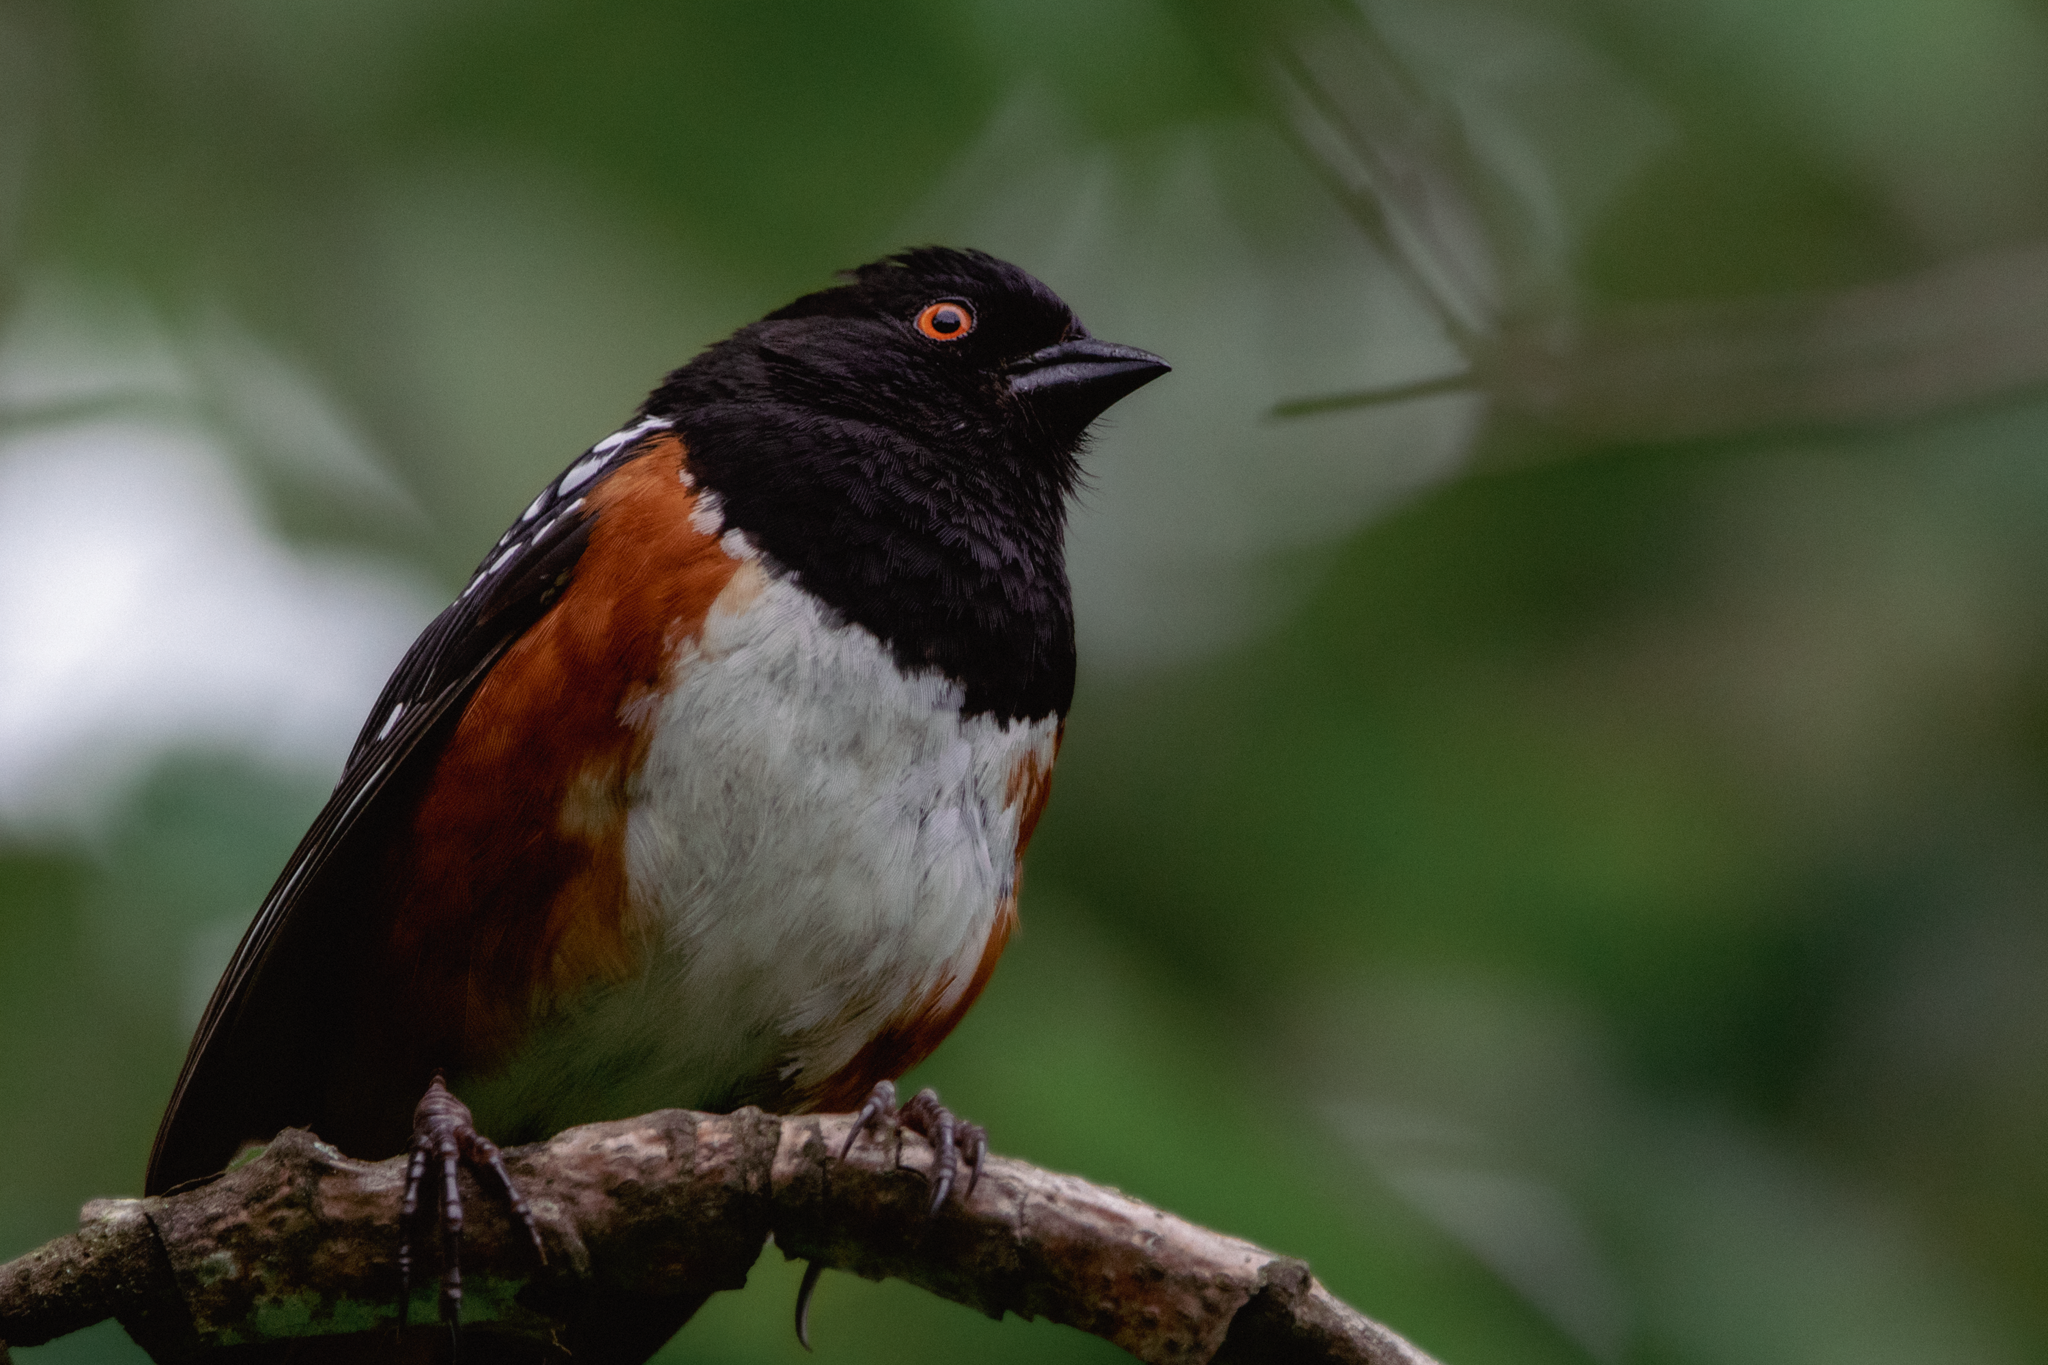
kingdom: Animalia
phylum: Chordata
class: Aves
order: Passeriformes
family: Passerellidae
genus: Pipilo
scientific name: Pipilo maculatus
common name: Spotted towhee
